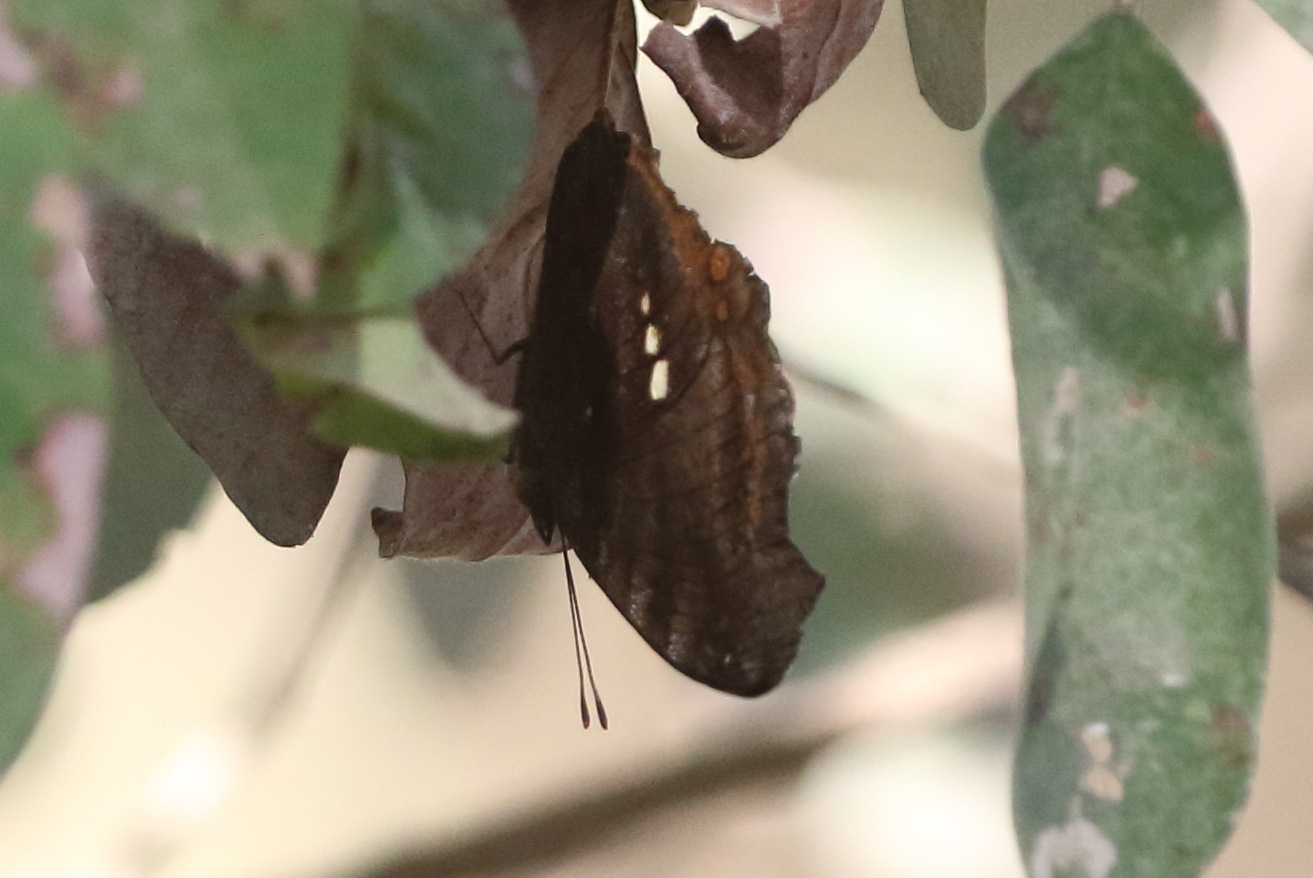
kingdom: Animalia
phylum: Arthropoda
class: Insecta
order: Lepidoptera
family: Nymphalidae
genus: Junonia
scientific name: Junonia hedonia
